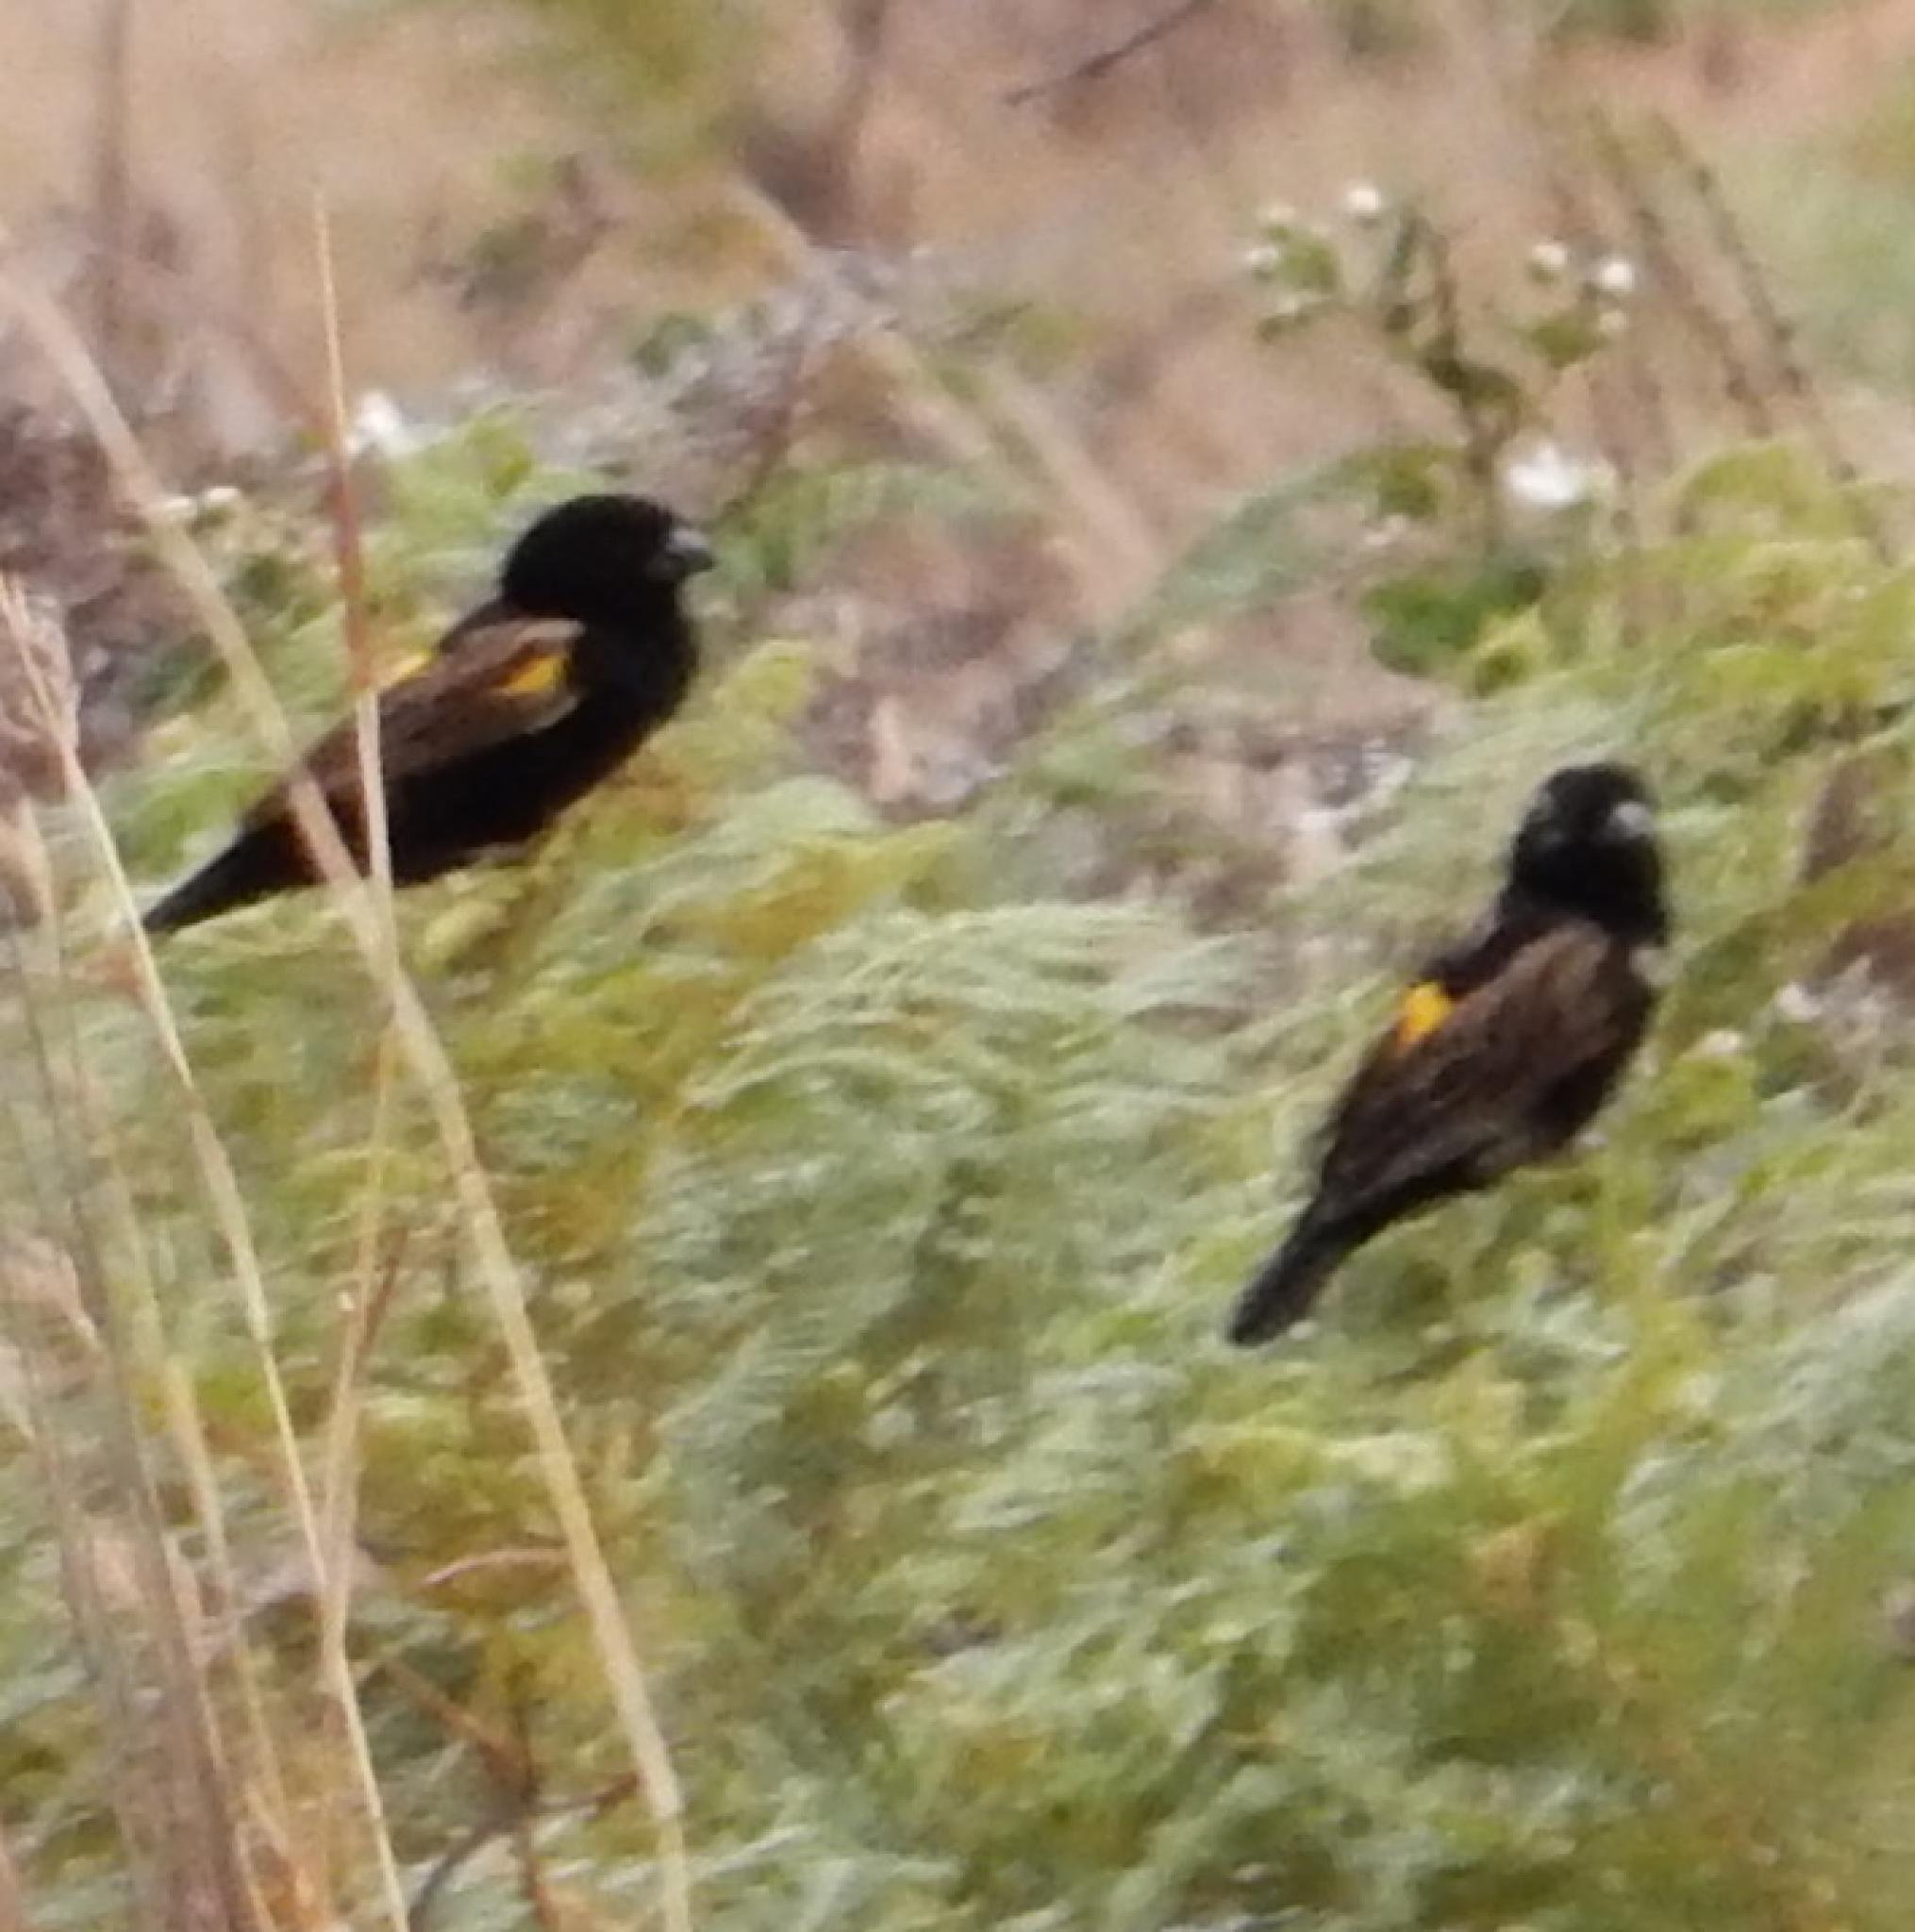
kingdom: Animalia
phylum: Chordata
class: Aves
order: Passeriformes
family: Ploceidae
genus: Euplectes
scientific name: Euplectes capensis
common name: Yellow bishop
